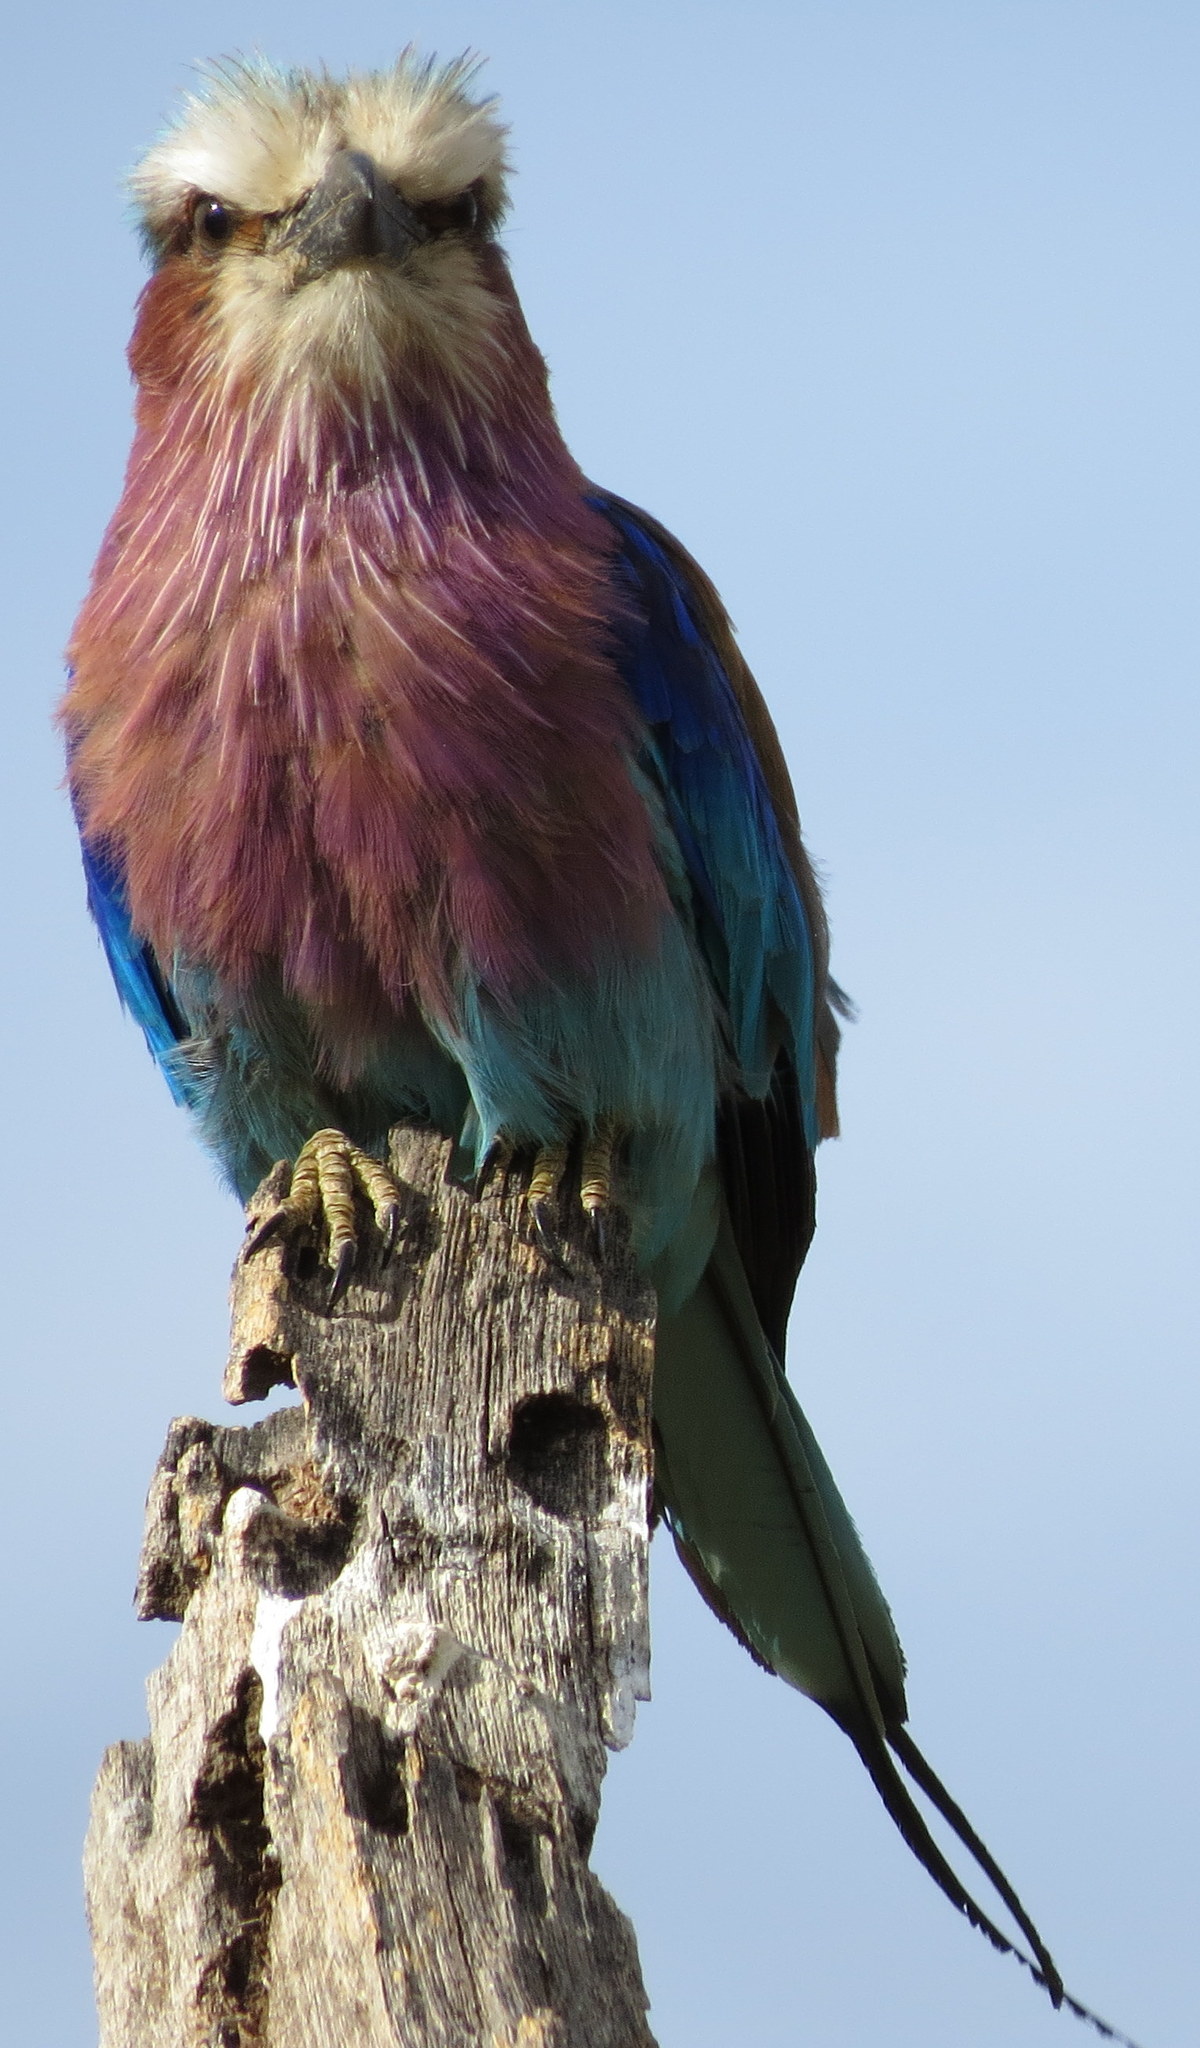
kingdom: Animalia
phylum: Chordata
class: Aves
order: Coraciiformes
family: Coraciidae
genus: Coracias
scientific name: Coracias caudatus
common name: Lilac-breasted roller
